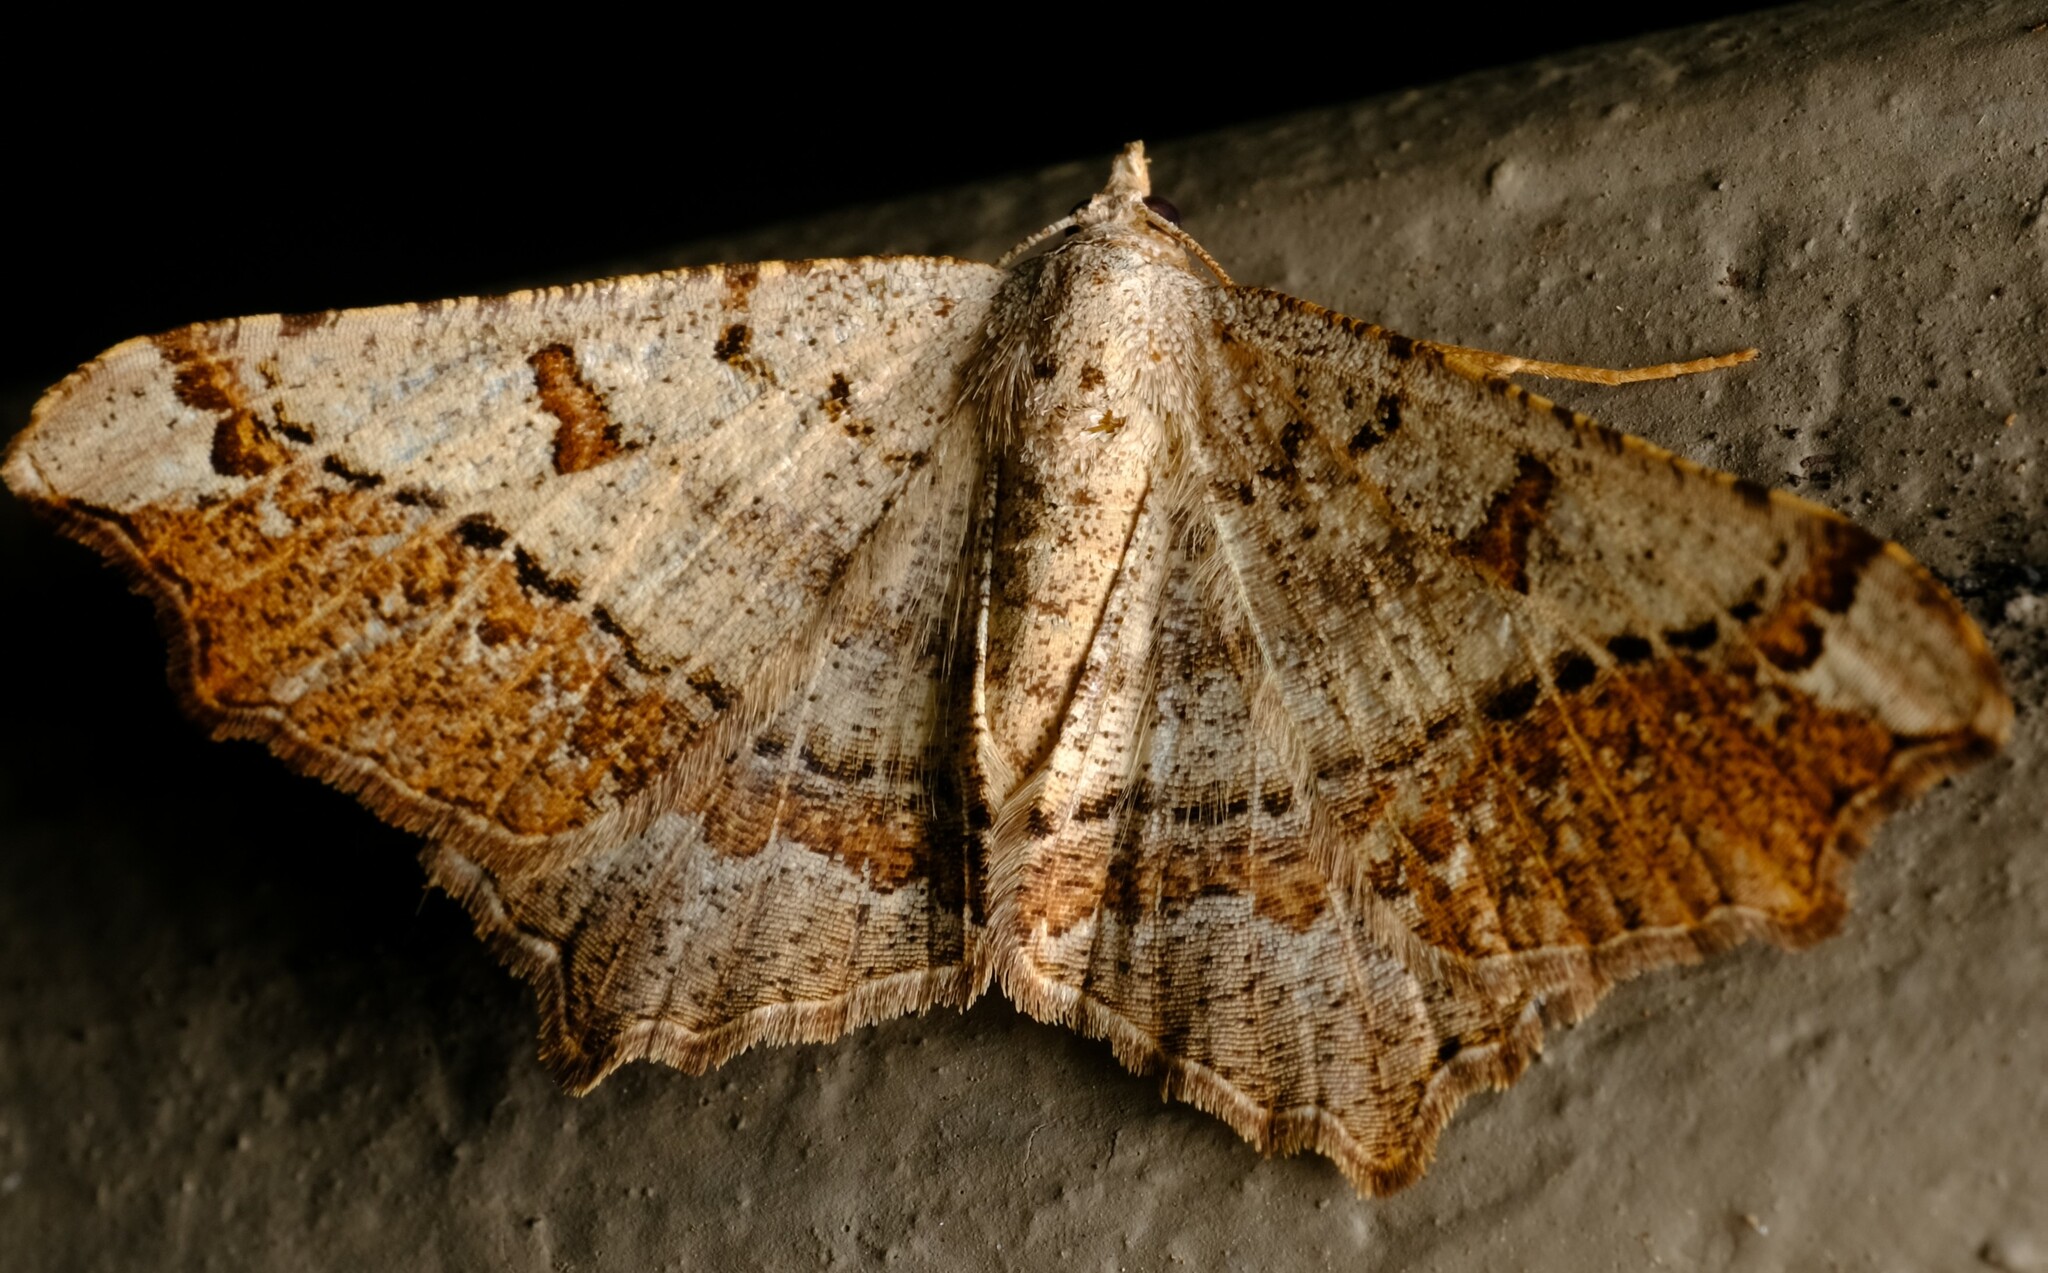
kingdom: Animalia
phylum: Arthropoda
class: Insecta
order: Lepidoptera
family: Geometridae
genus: Dissomorphia
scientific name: Dissomorphia australiaria
